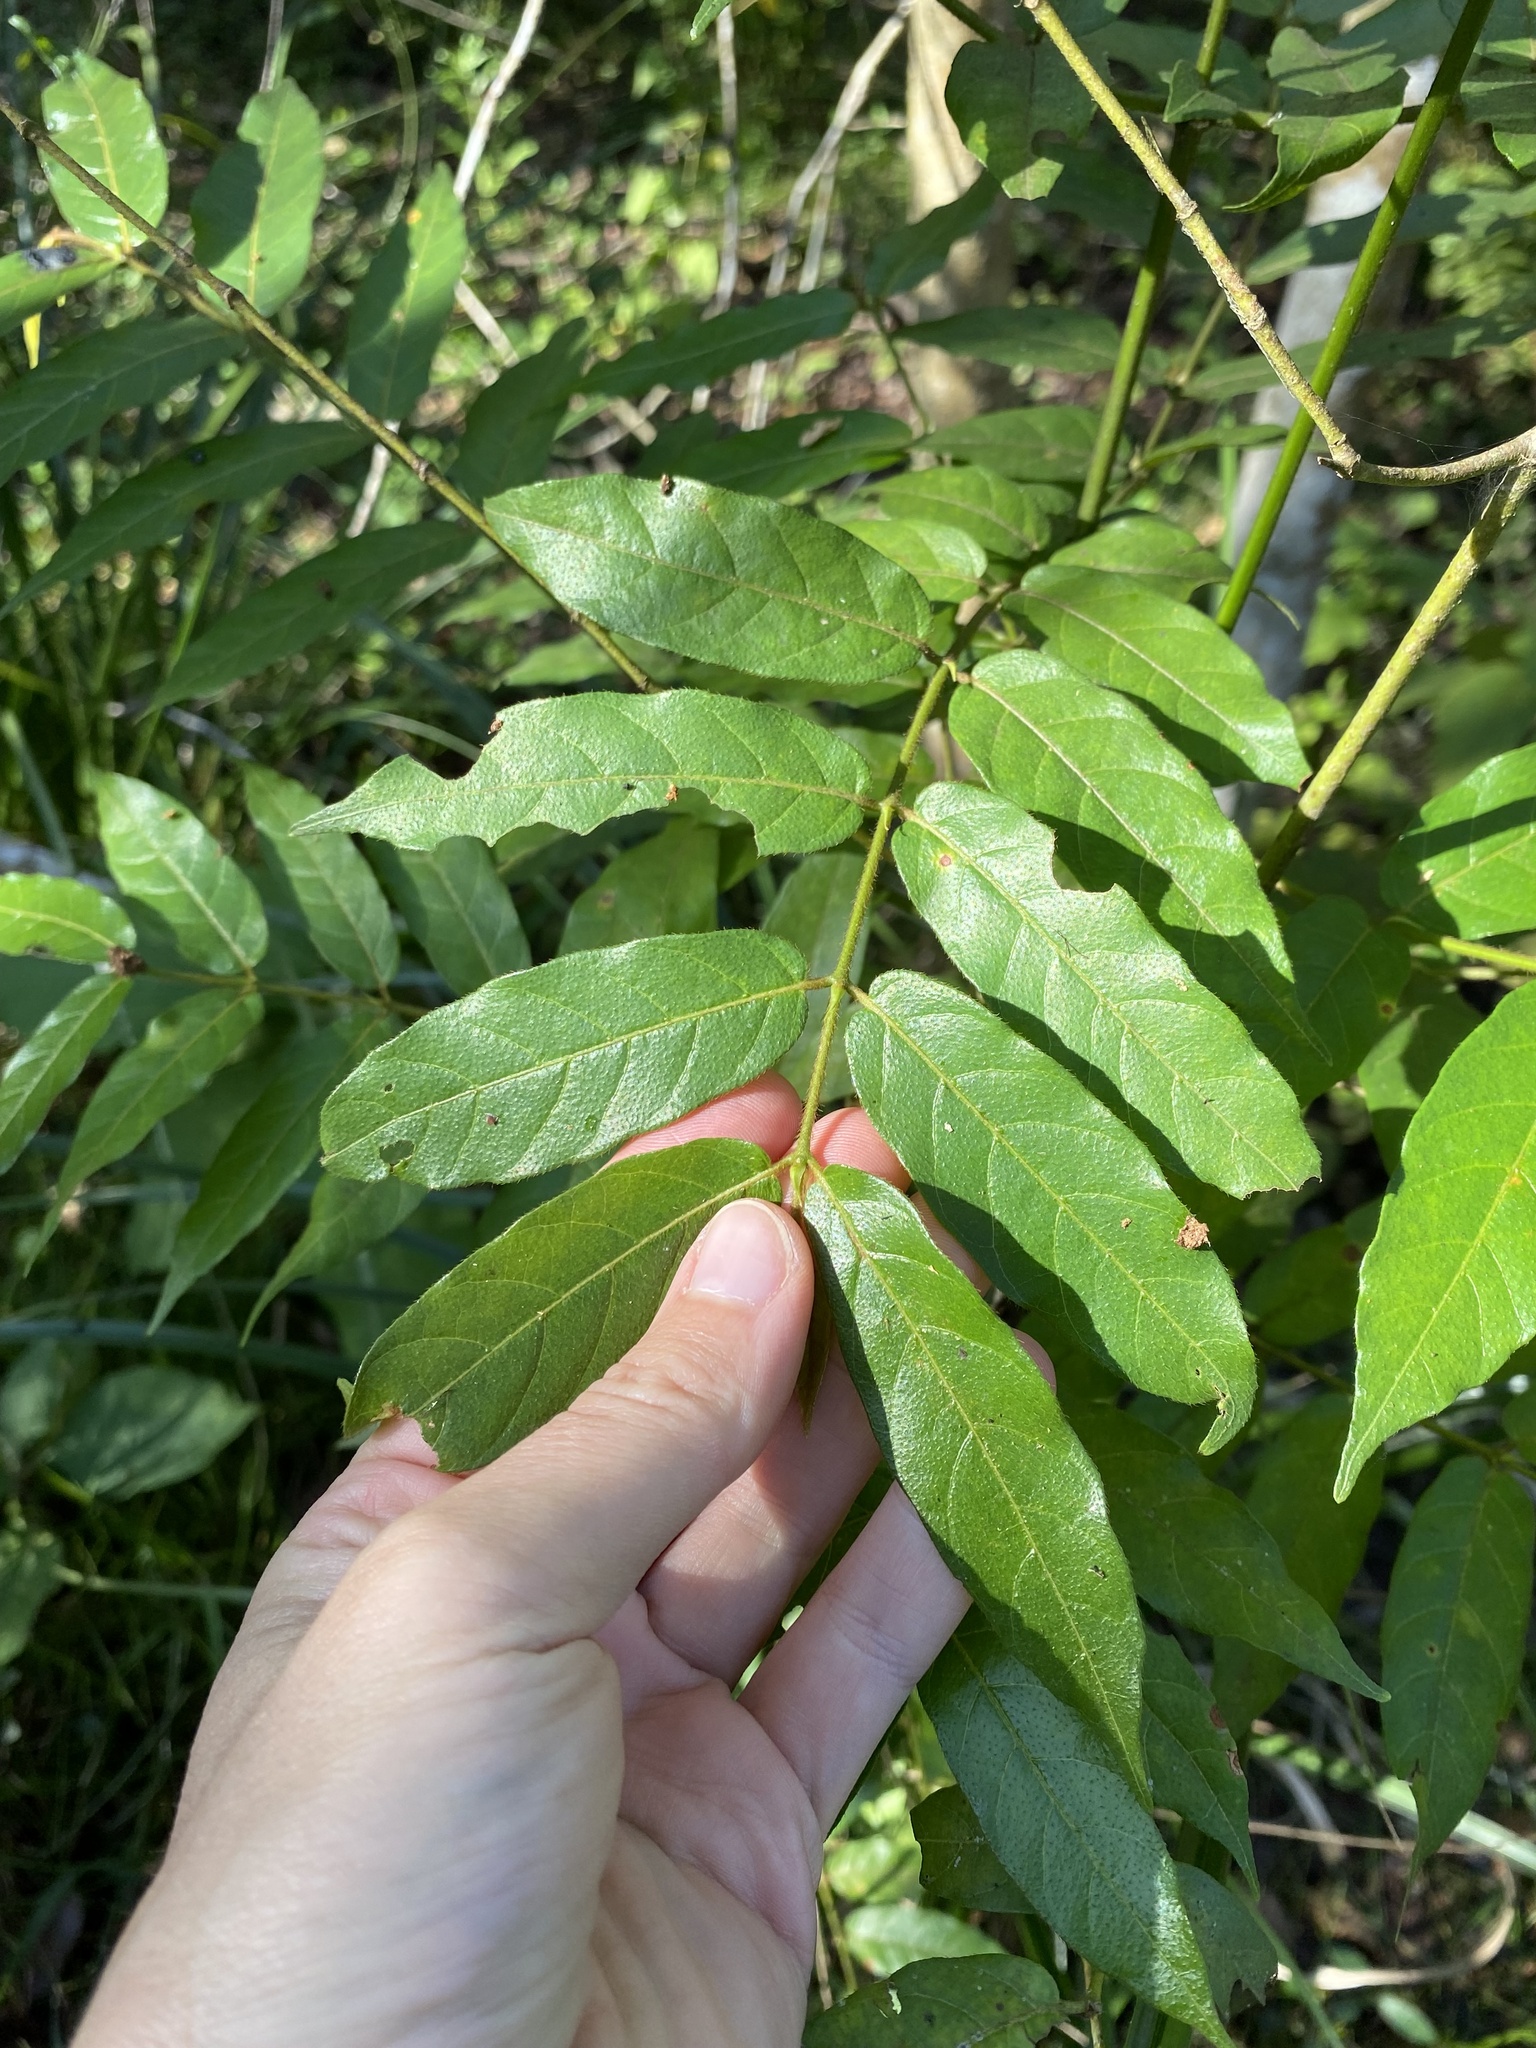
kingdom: Plantae
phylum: Tracheophyta
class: Magnoliopsida
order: Gentianales
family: Rubiaceae
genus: Keetia
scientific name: Keetia gueinzii
